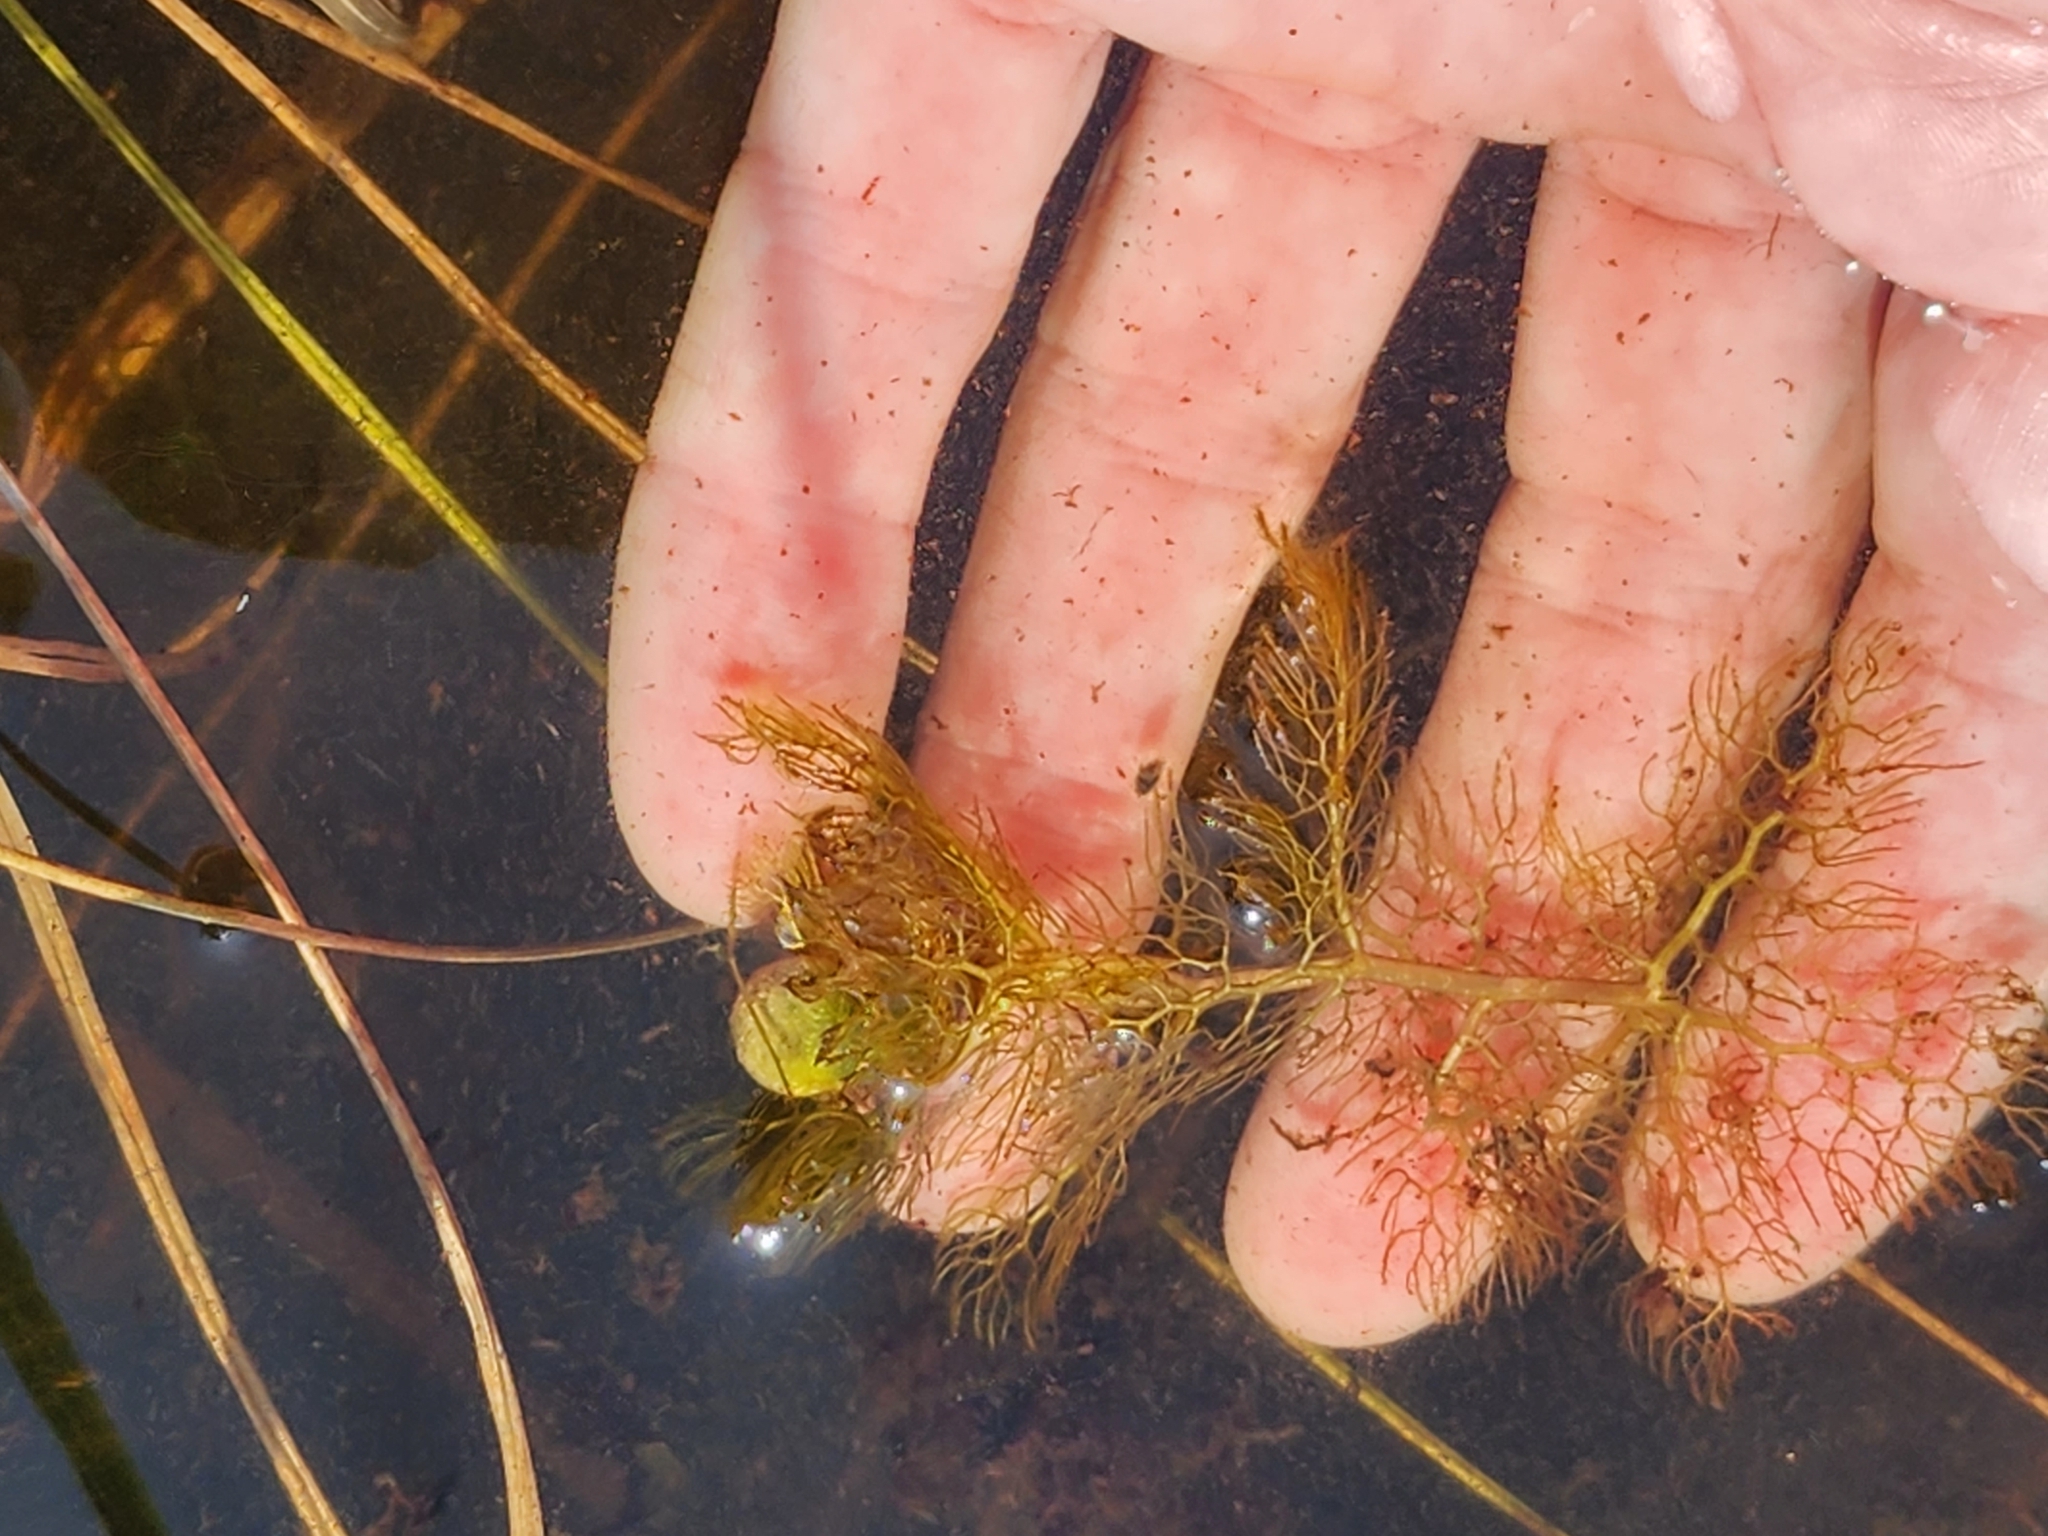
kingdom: Plantae
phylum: Tracheophyta
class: Magnoliopsida
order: Lamiales
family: Lentibulariaceae
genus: Utricularia
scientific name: Utricularia macrorhiza
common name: Common bladderwort
